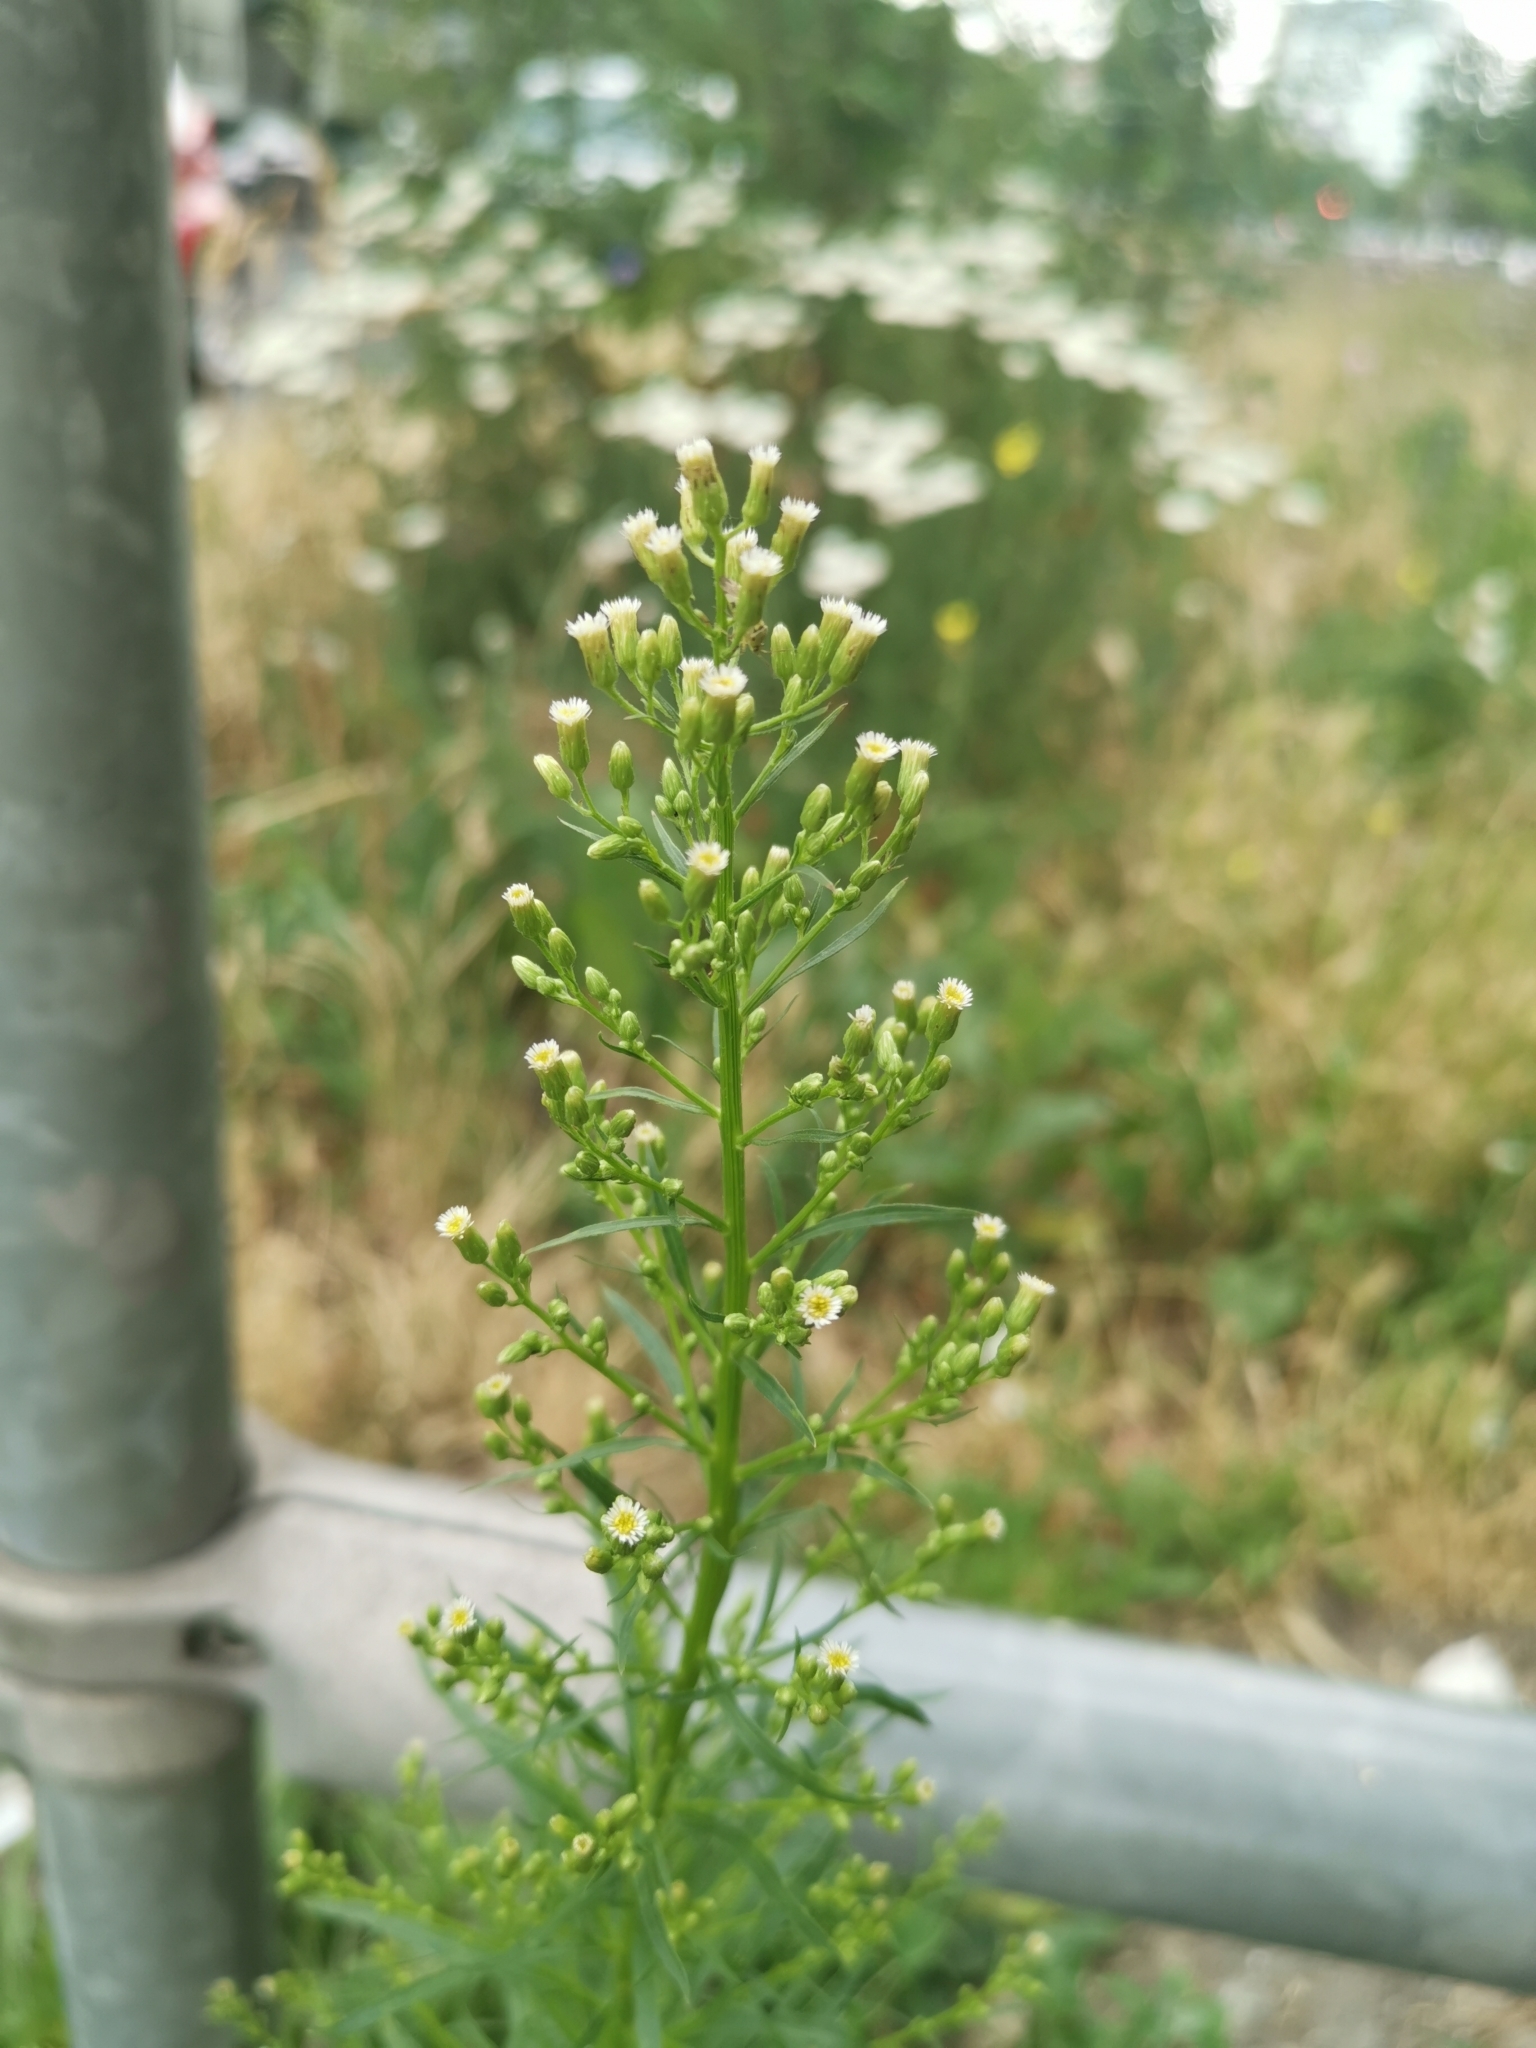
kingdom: Plantae
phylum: Tracheophyta
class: Magnoliopsida
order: Asterales
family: Asteraceae
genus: Erigeron
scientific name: Erigeron canadensis
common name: Canadian fleabane
